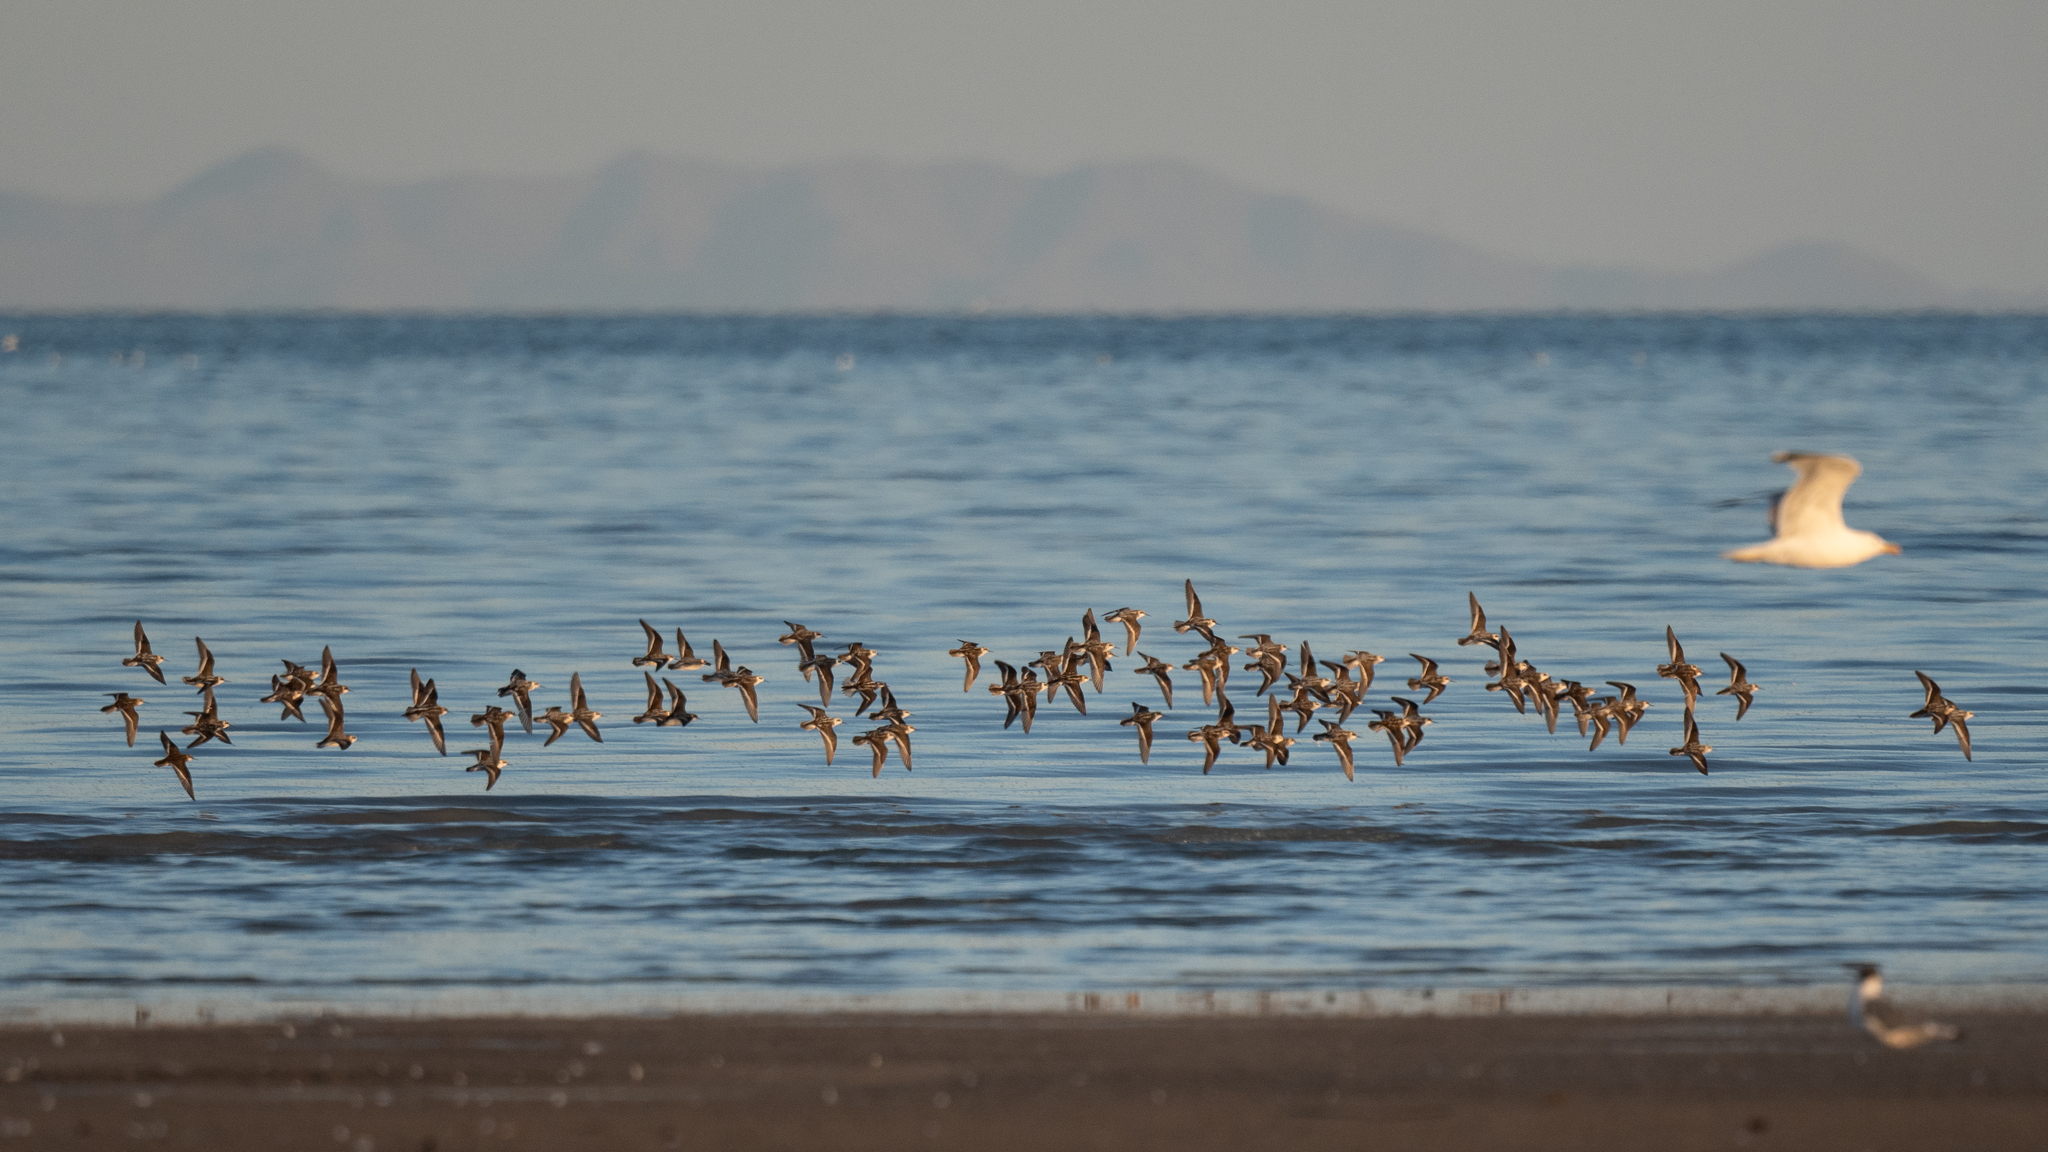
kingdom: Animalia
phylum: Chordata
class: Aves
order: Charadriiformes
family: Scolopacidae
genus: Phalaropus
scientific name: Phalaropus lobatus
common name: Red-necked phalarope
